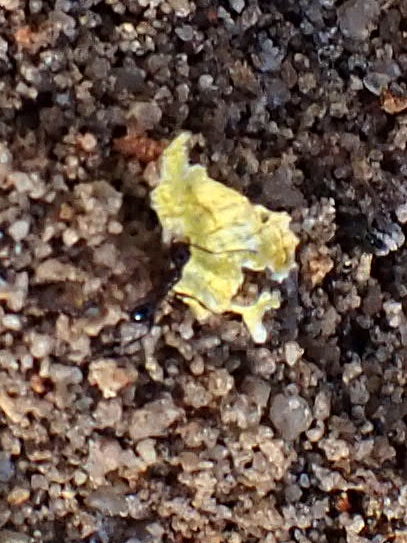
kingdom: Animalia
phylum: Arthropoda
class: Insecta
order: Hymenoptera
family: Formicidae
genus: Pheidole
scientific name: Pheidole obscurithorax
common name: Obscure big-headed ant
